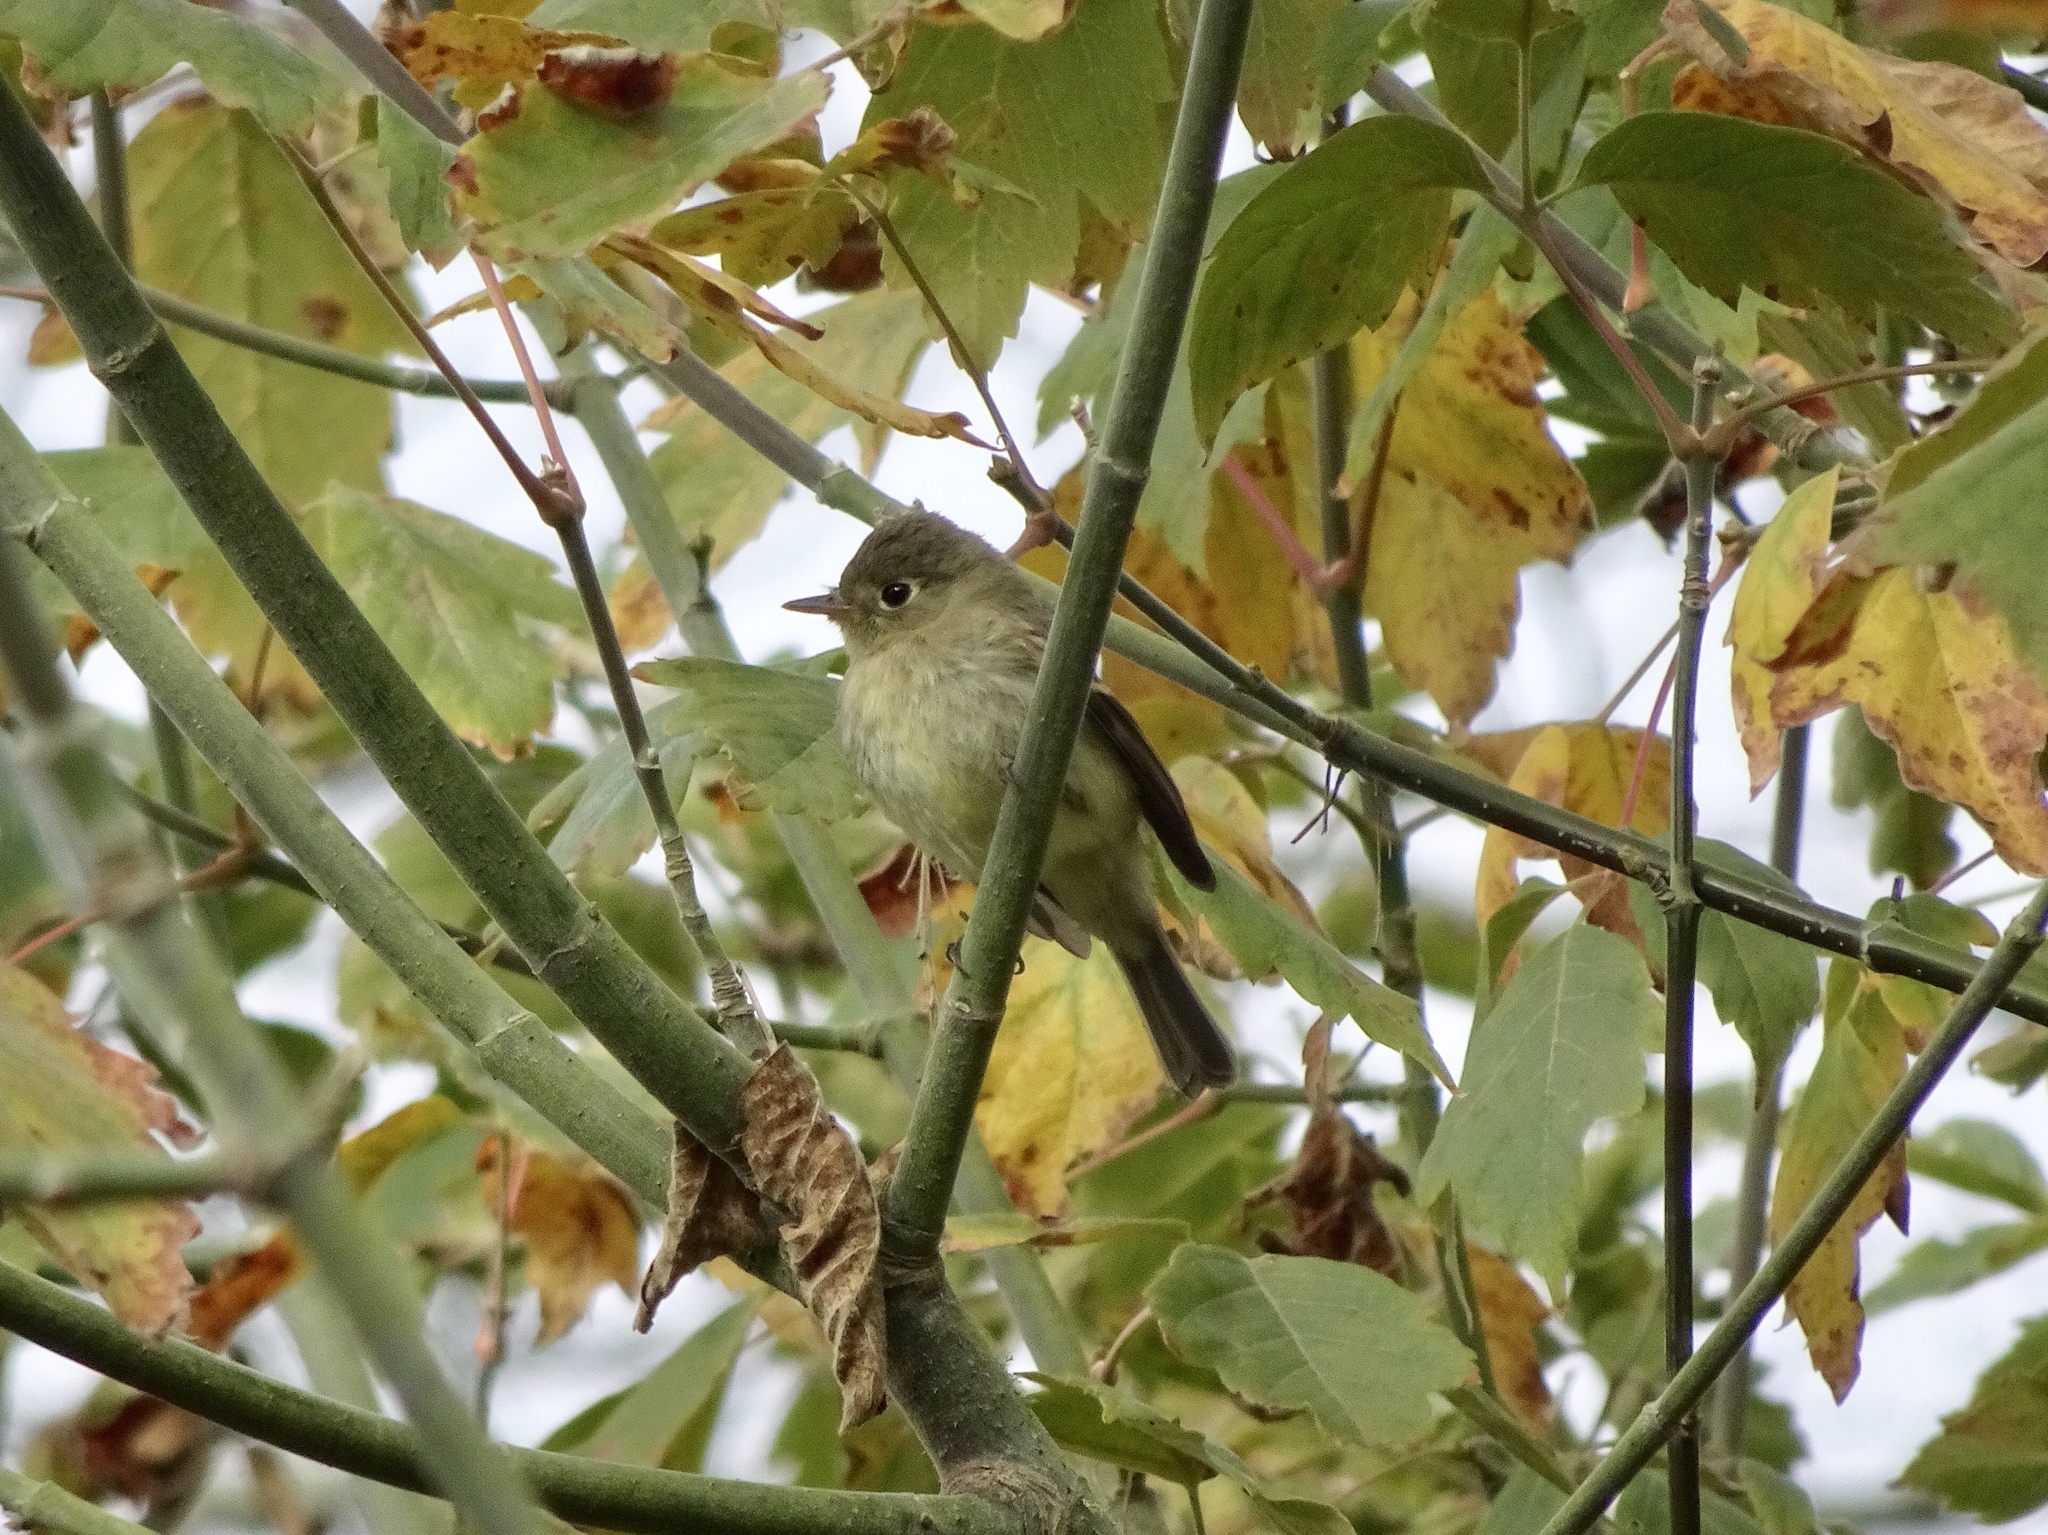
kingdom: Animalia
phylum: Chordata
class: Aves
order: Passeriformes
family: Tyrannidae
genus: Empidonax
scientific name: Empidonax difficilis
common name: Pacific-slope flycatcher
